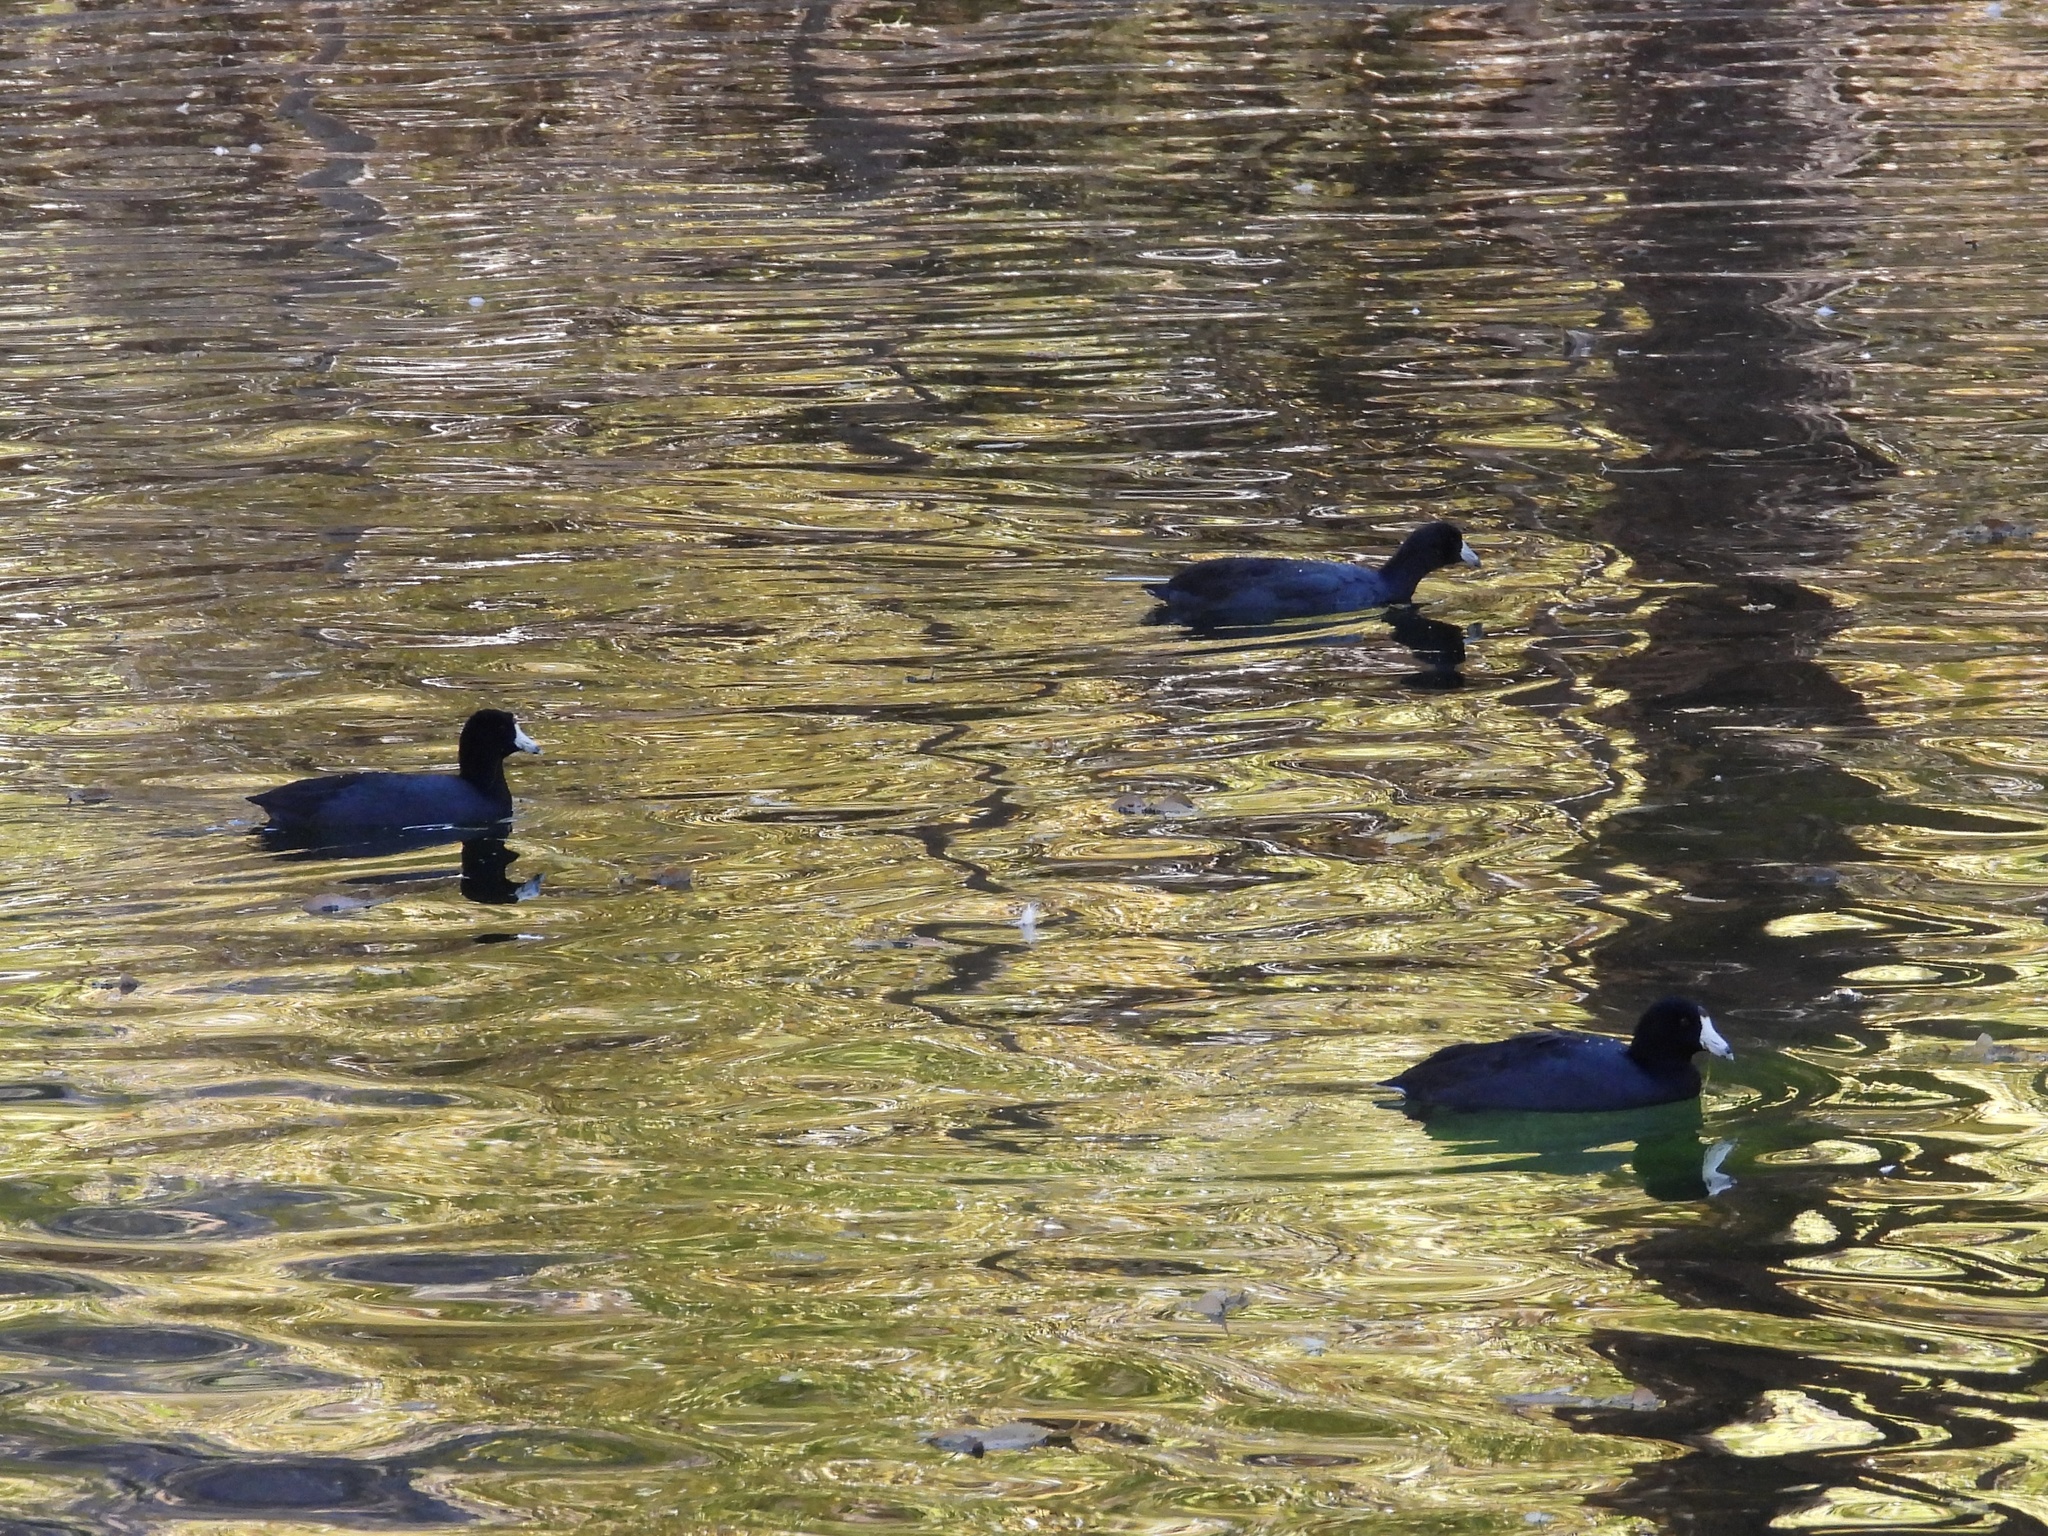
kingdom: Animalia
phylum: Chordata
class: Aves
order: Gruiformes
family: Rallidae
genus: Fulica
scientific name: Fulica americana
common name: American coot
